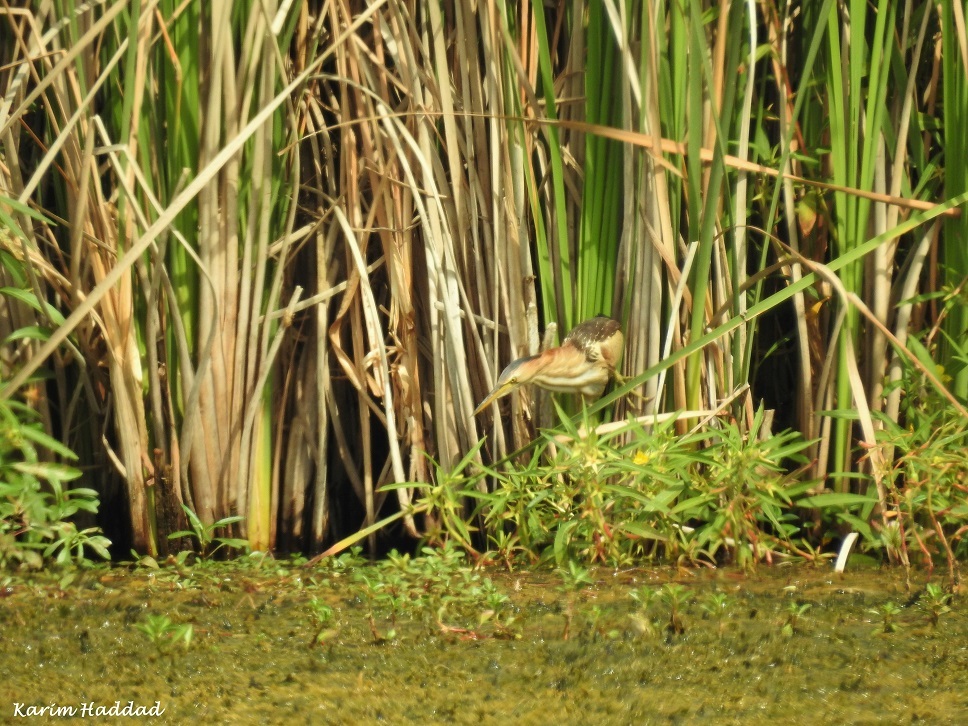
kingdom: Animalia
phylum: Chordata
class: Aves
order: Pelecaniformes
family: Ardeidae
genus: Ixobrychus
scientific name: Ixobrychus minutus
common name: Little bittern
